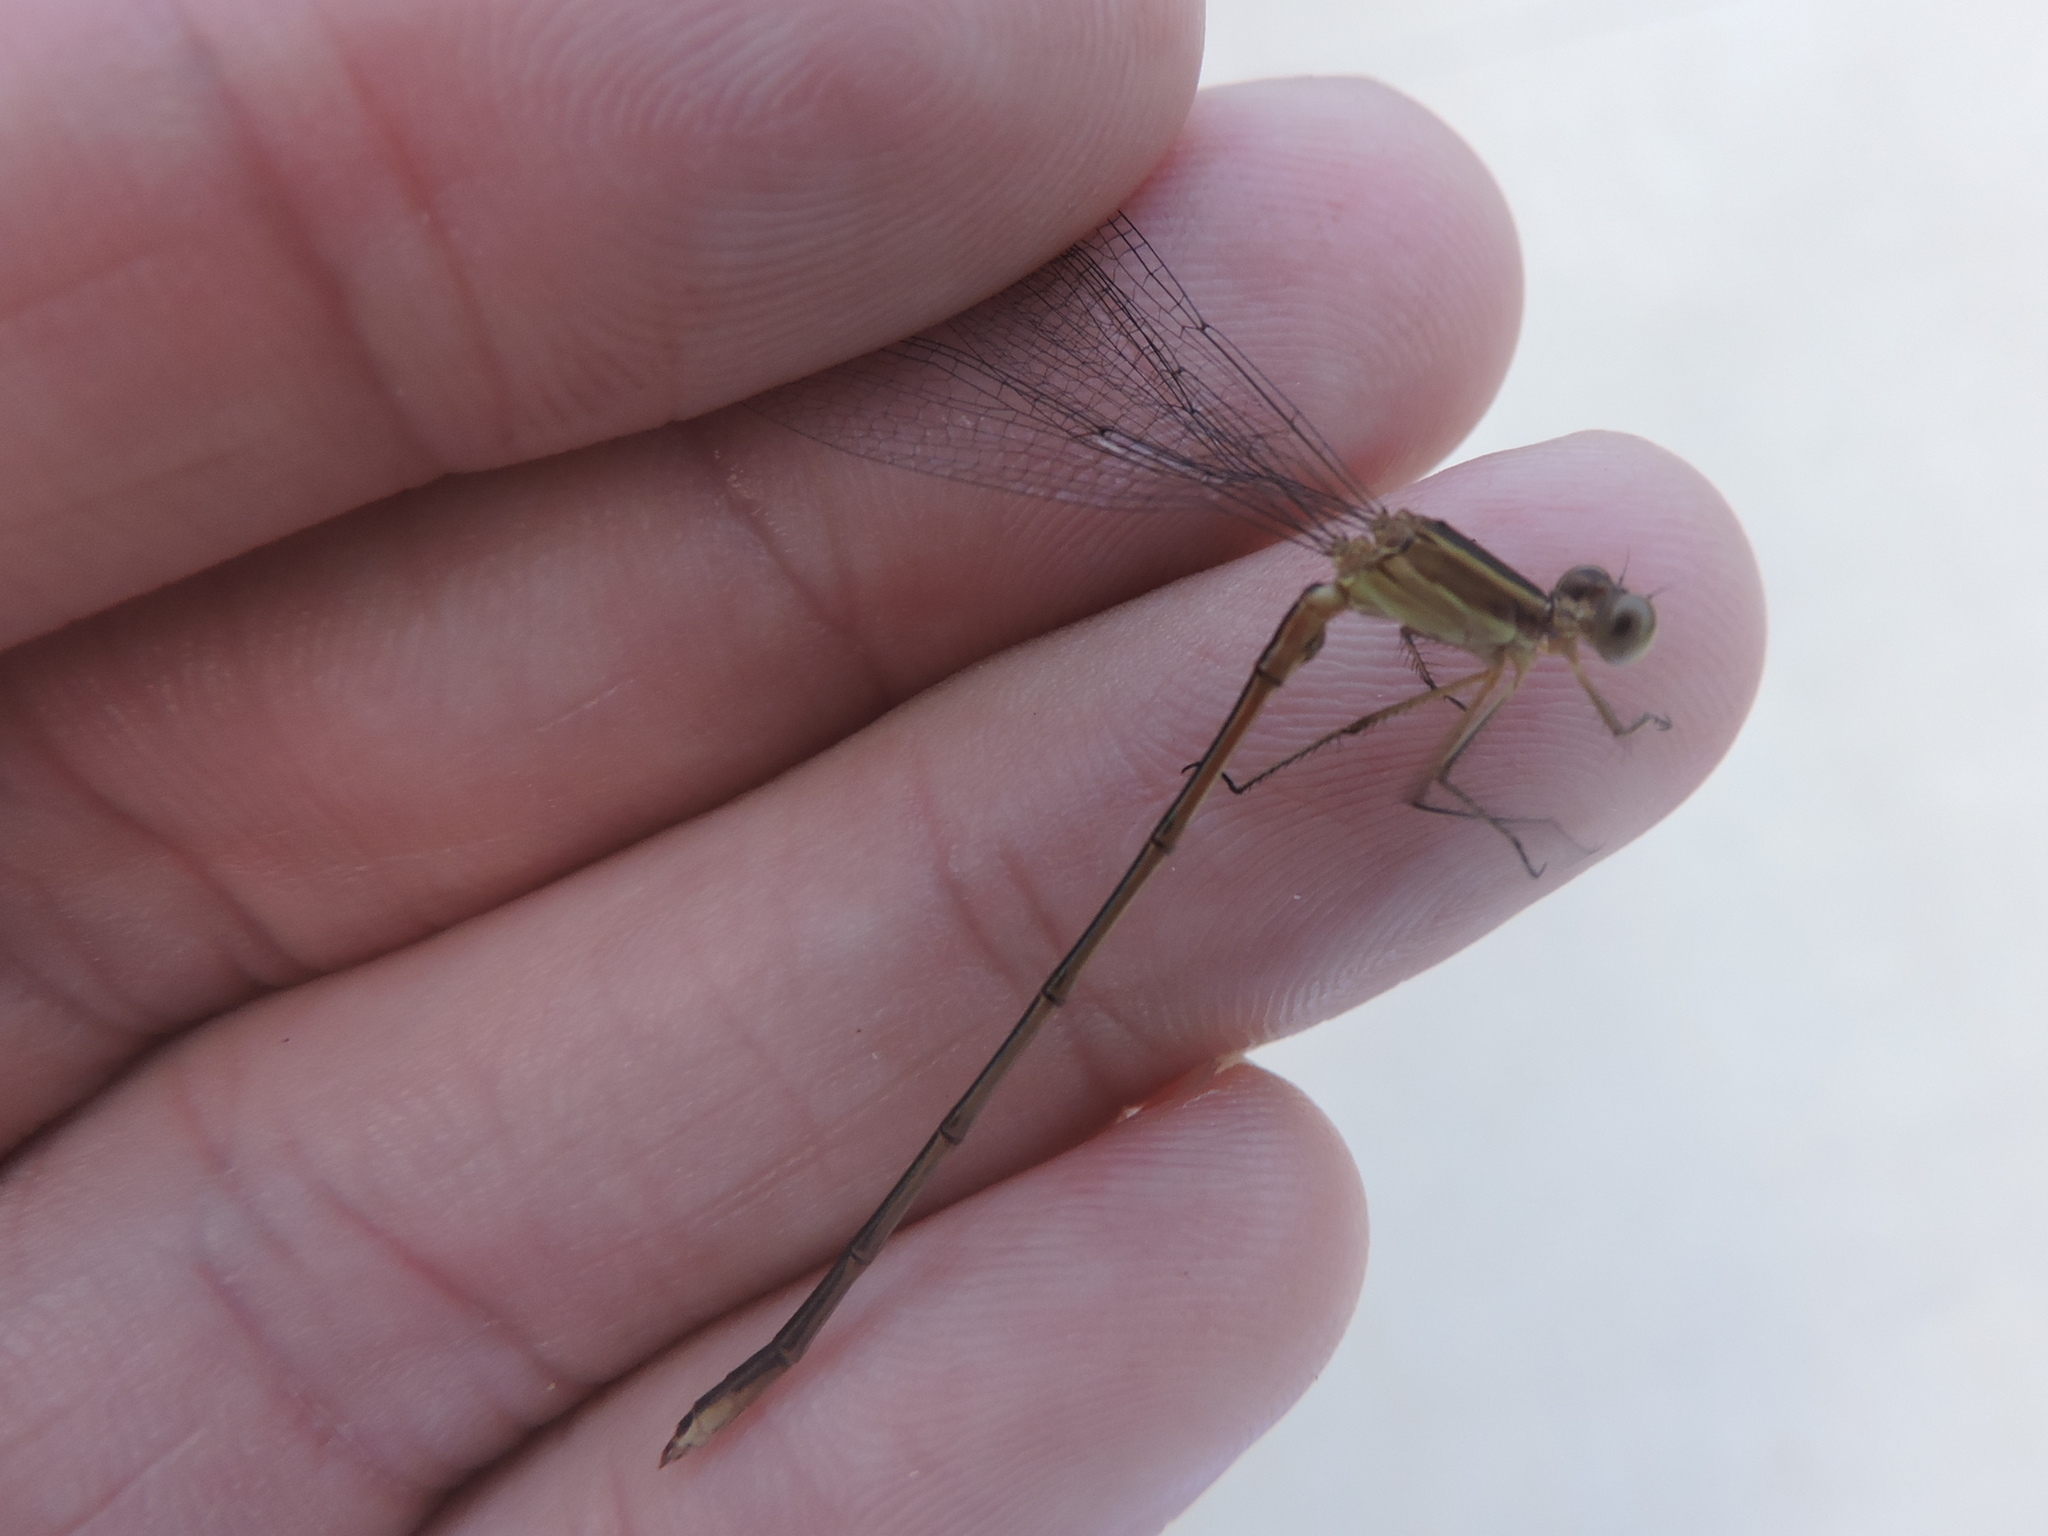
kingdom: Animalia
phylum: Arthropoda
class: Insecta
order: Odonata
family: Lestidae
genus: Lestes
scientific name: Lestes australis
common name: Southern spreadwing
